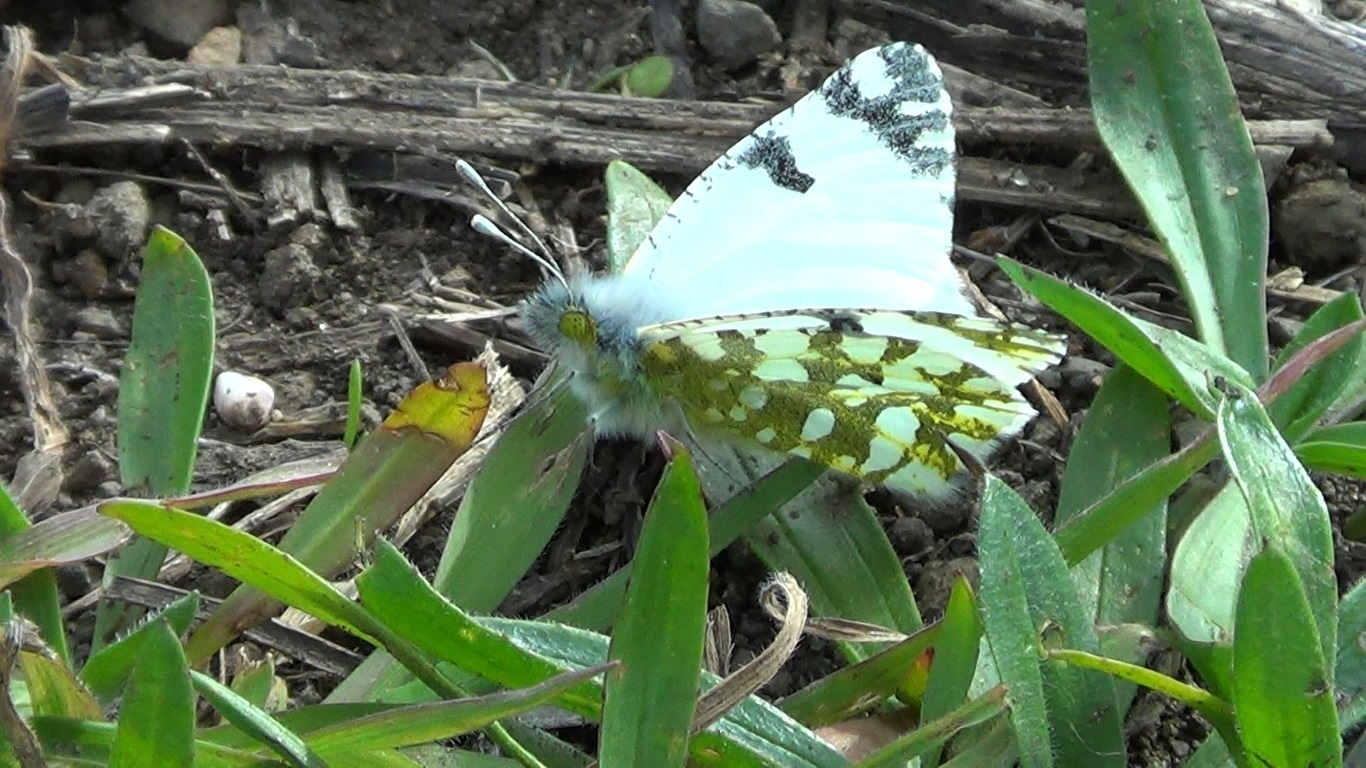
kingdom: Animalia
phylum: Arthropoda
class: Insecta
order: Lepidoptera
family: Pieridae
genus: Euchloe
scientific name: Euchloe ausonia
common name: Eastern dappled white
